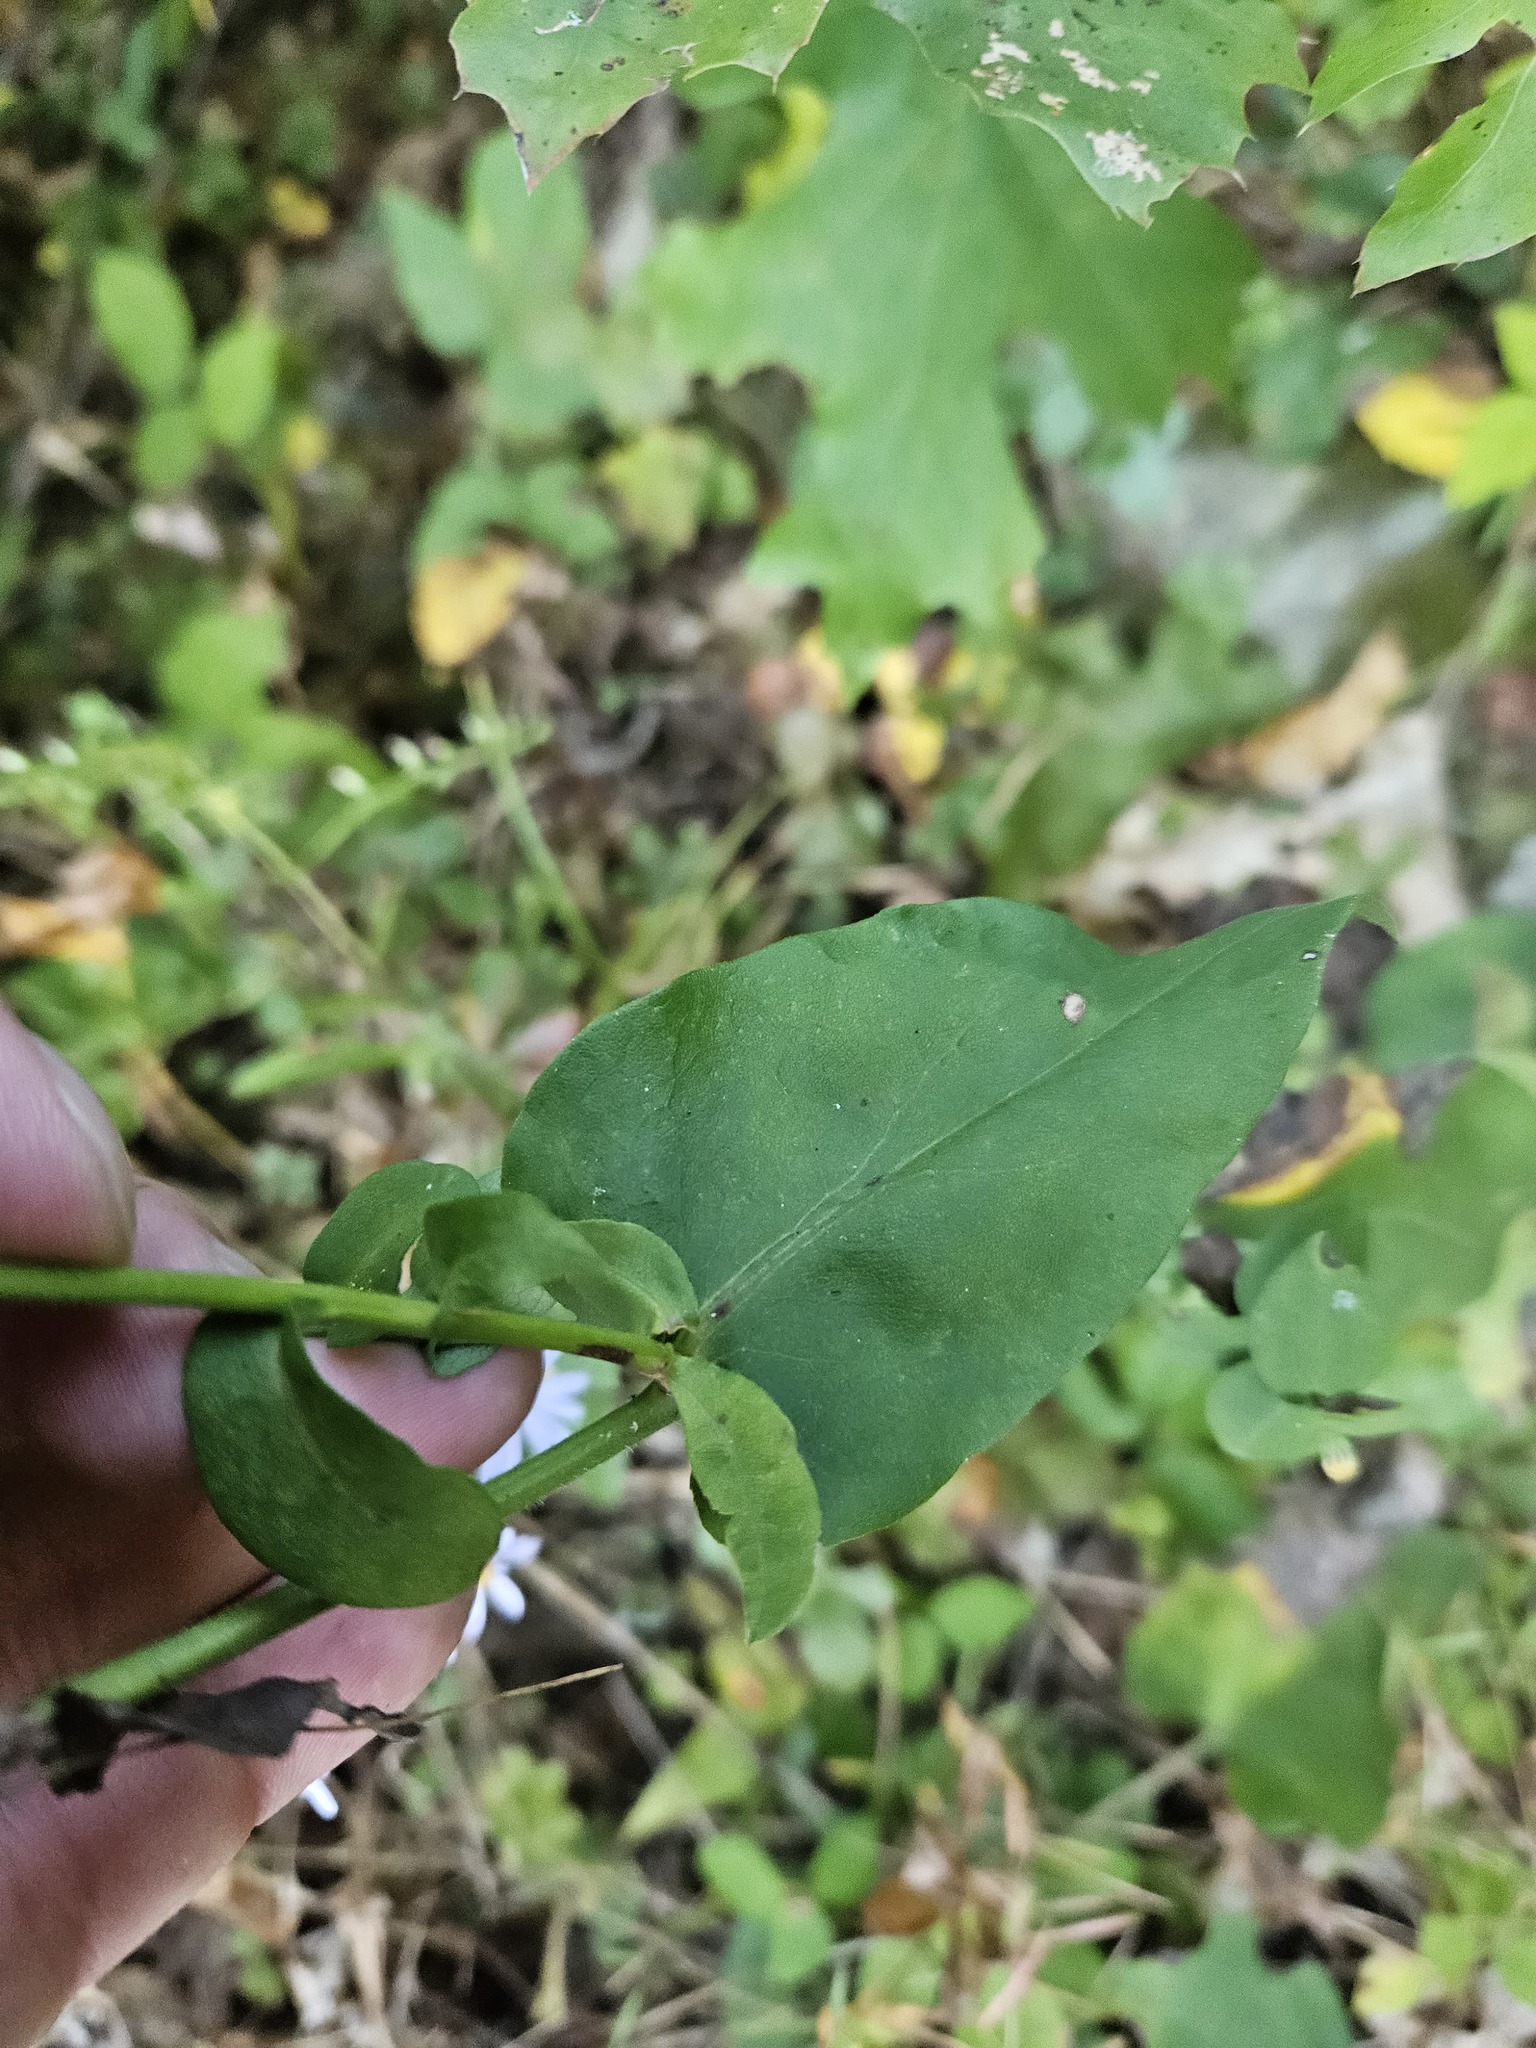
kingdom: Plantae
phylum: Tracheophyta
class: Magnoliopsida
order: Asterales
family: Asteraceae
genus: Symphyotrichum
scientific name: Symphyotrichum undulatum
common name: Clasping heart-leaf aster
